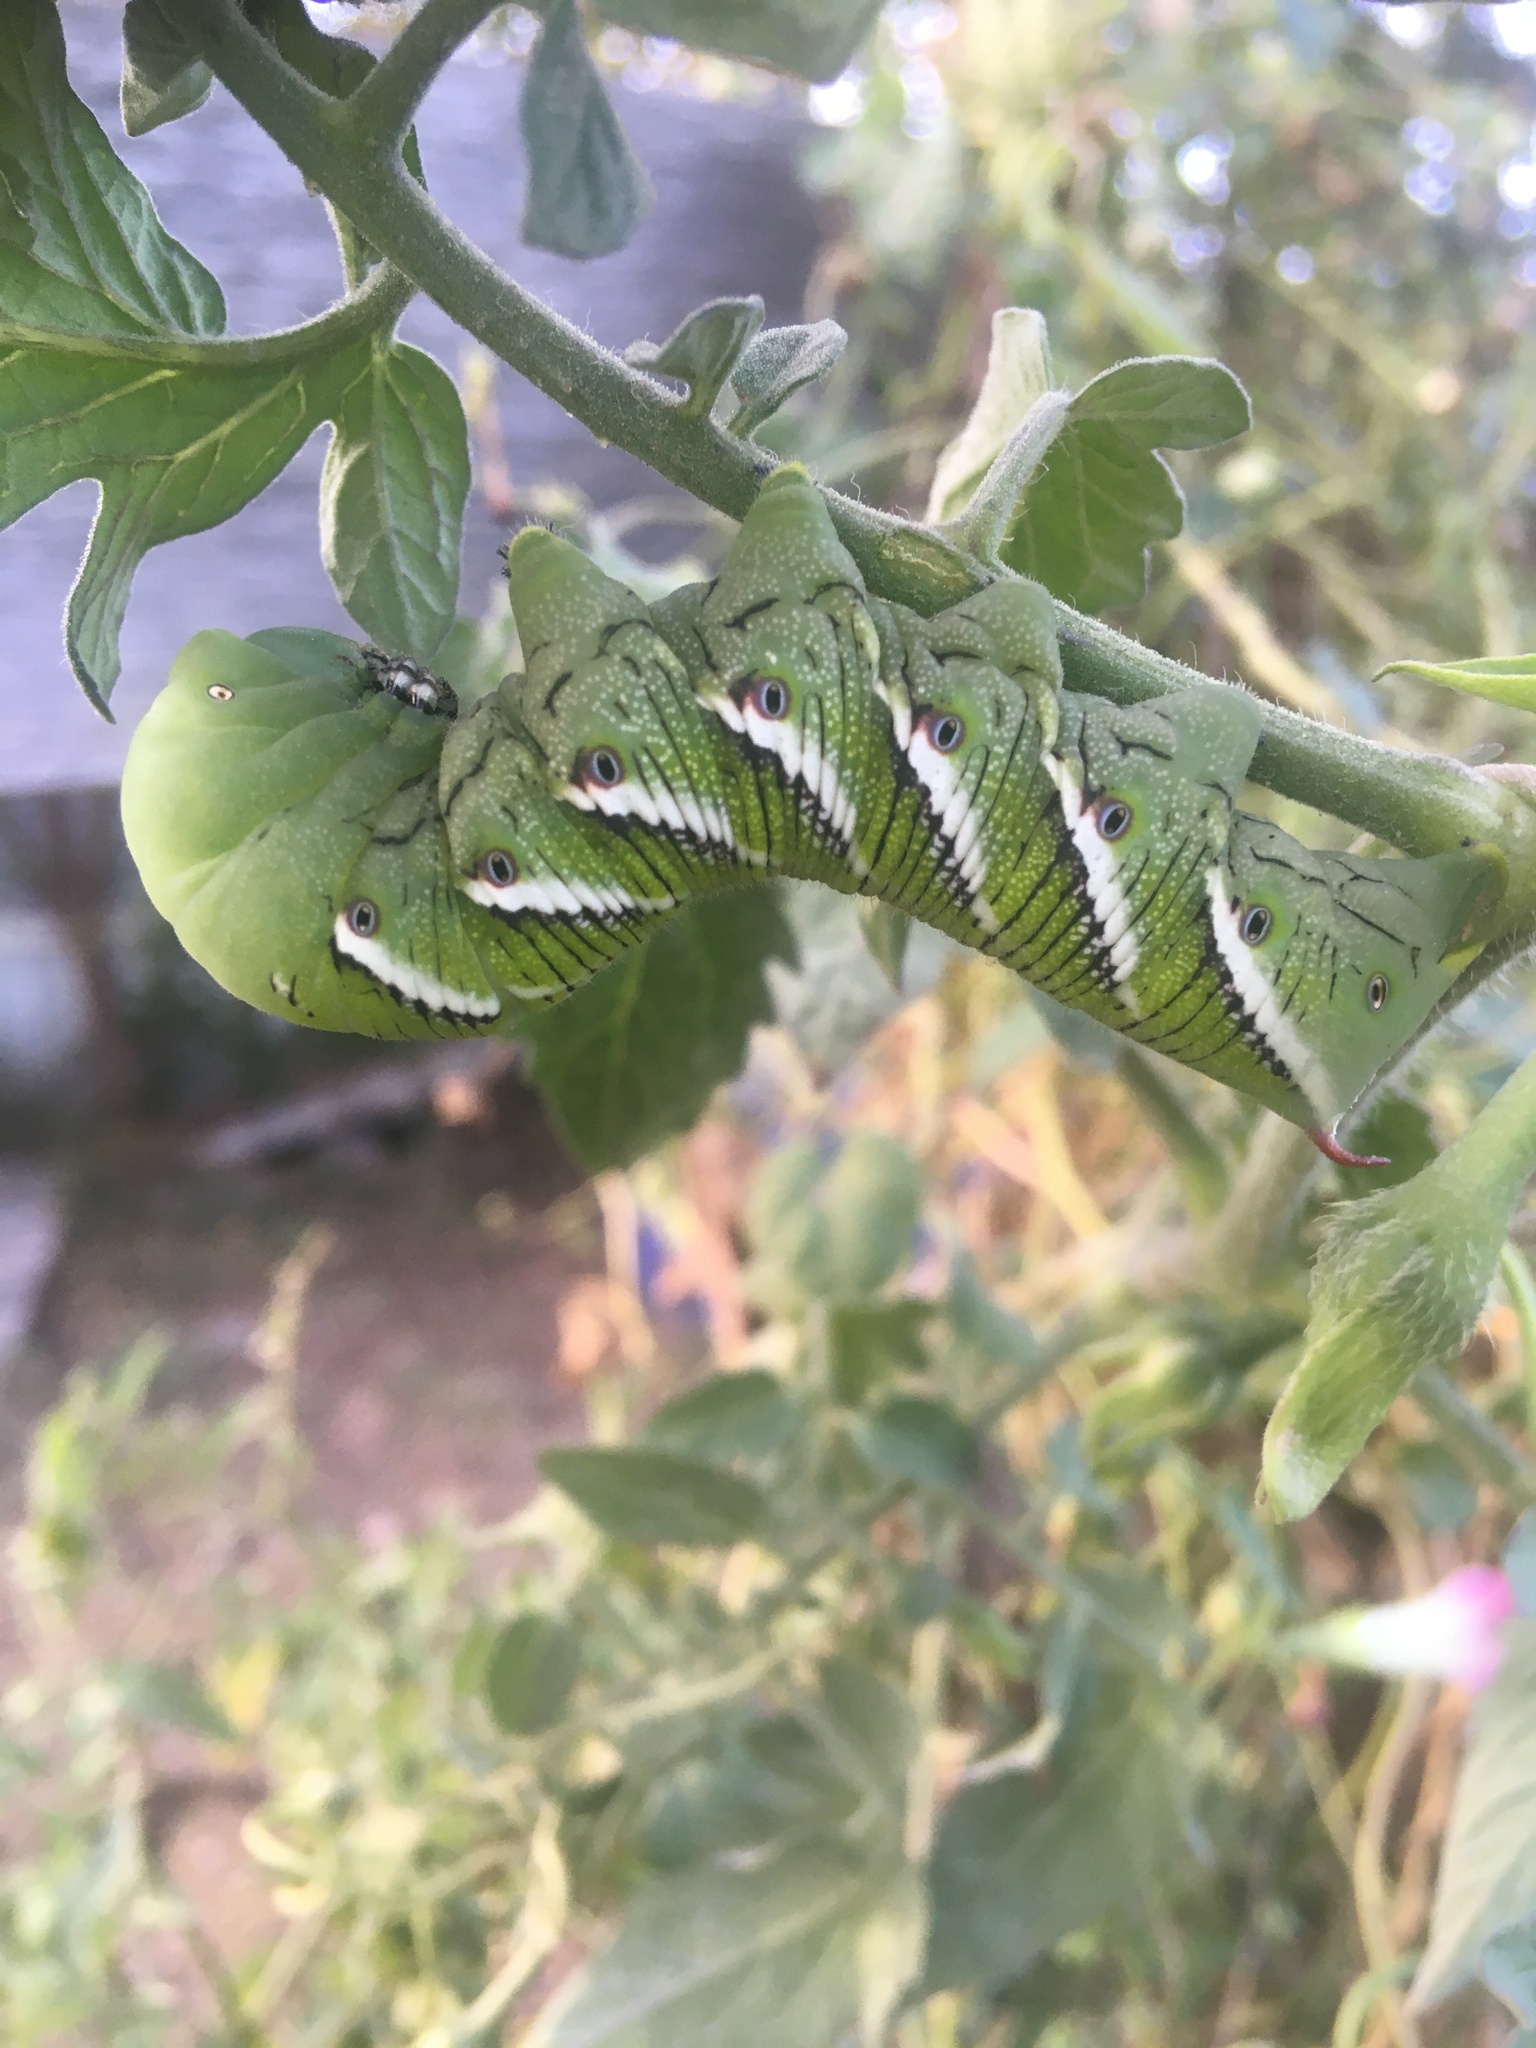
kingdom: Animalia
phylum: Arthropoda
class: Insecta
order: Lepidoptera
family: Sphingidae
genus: Manduca
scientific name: Manduca sexta
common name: Carolina sphinx
